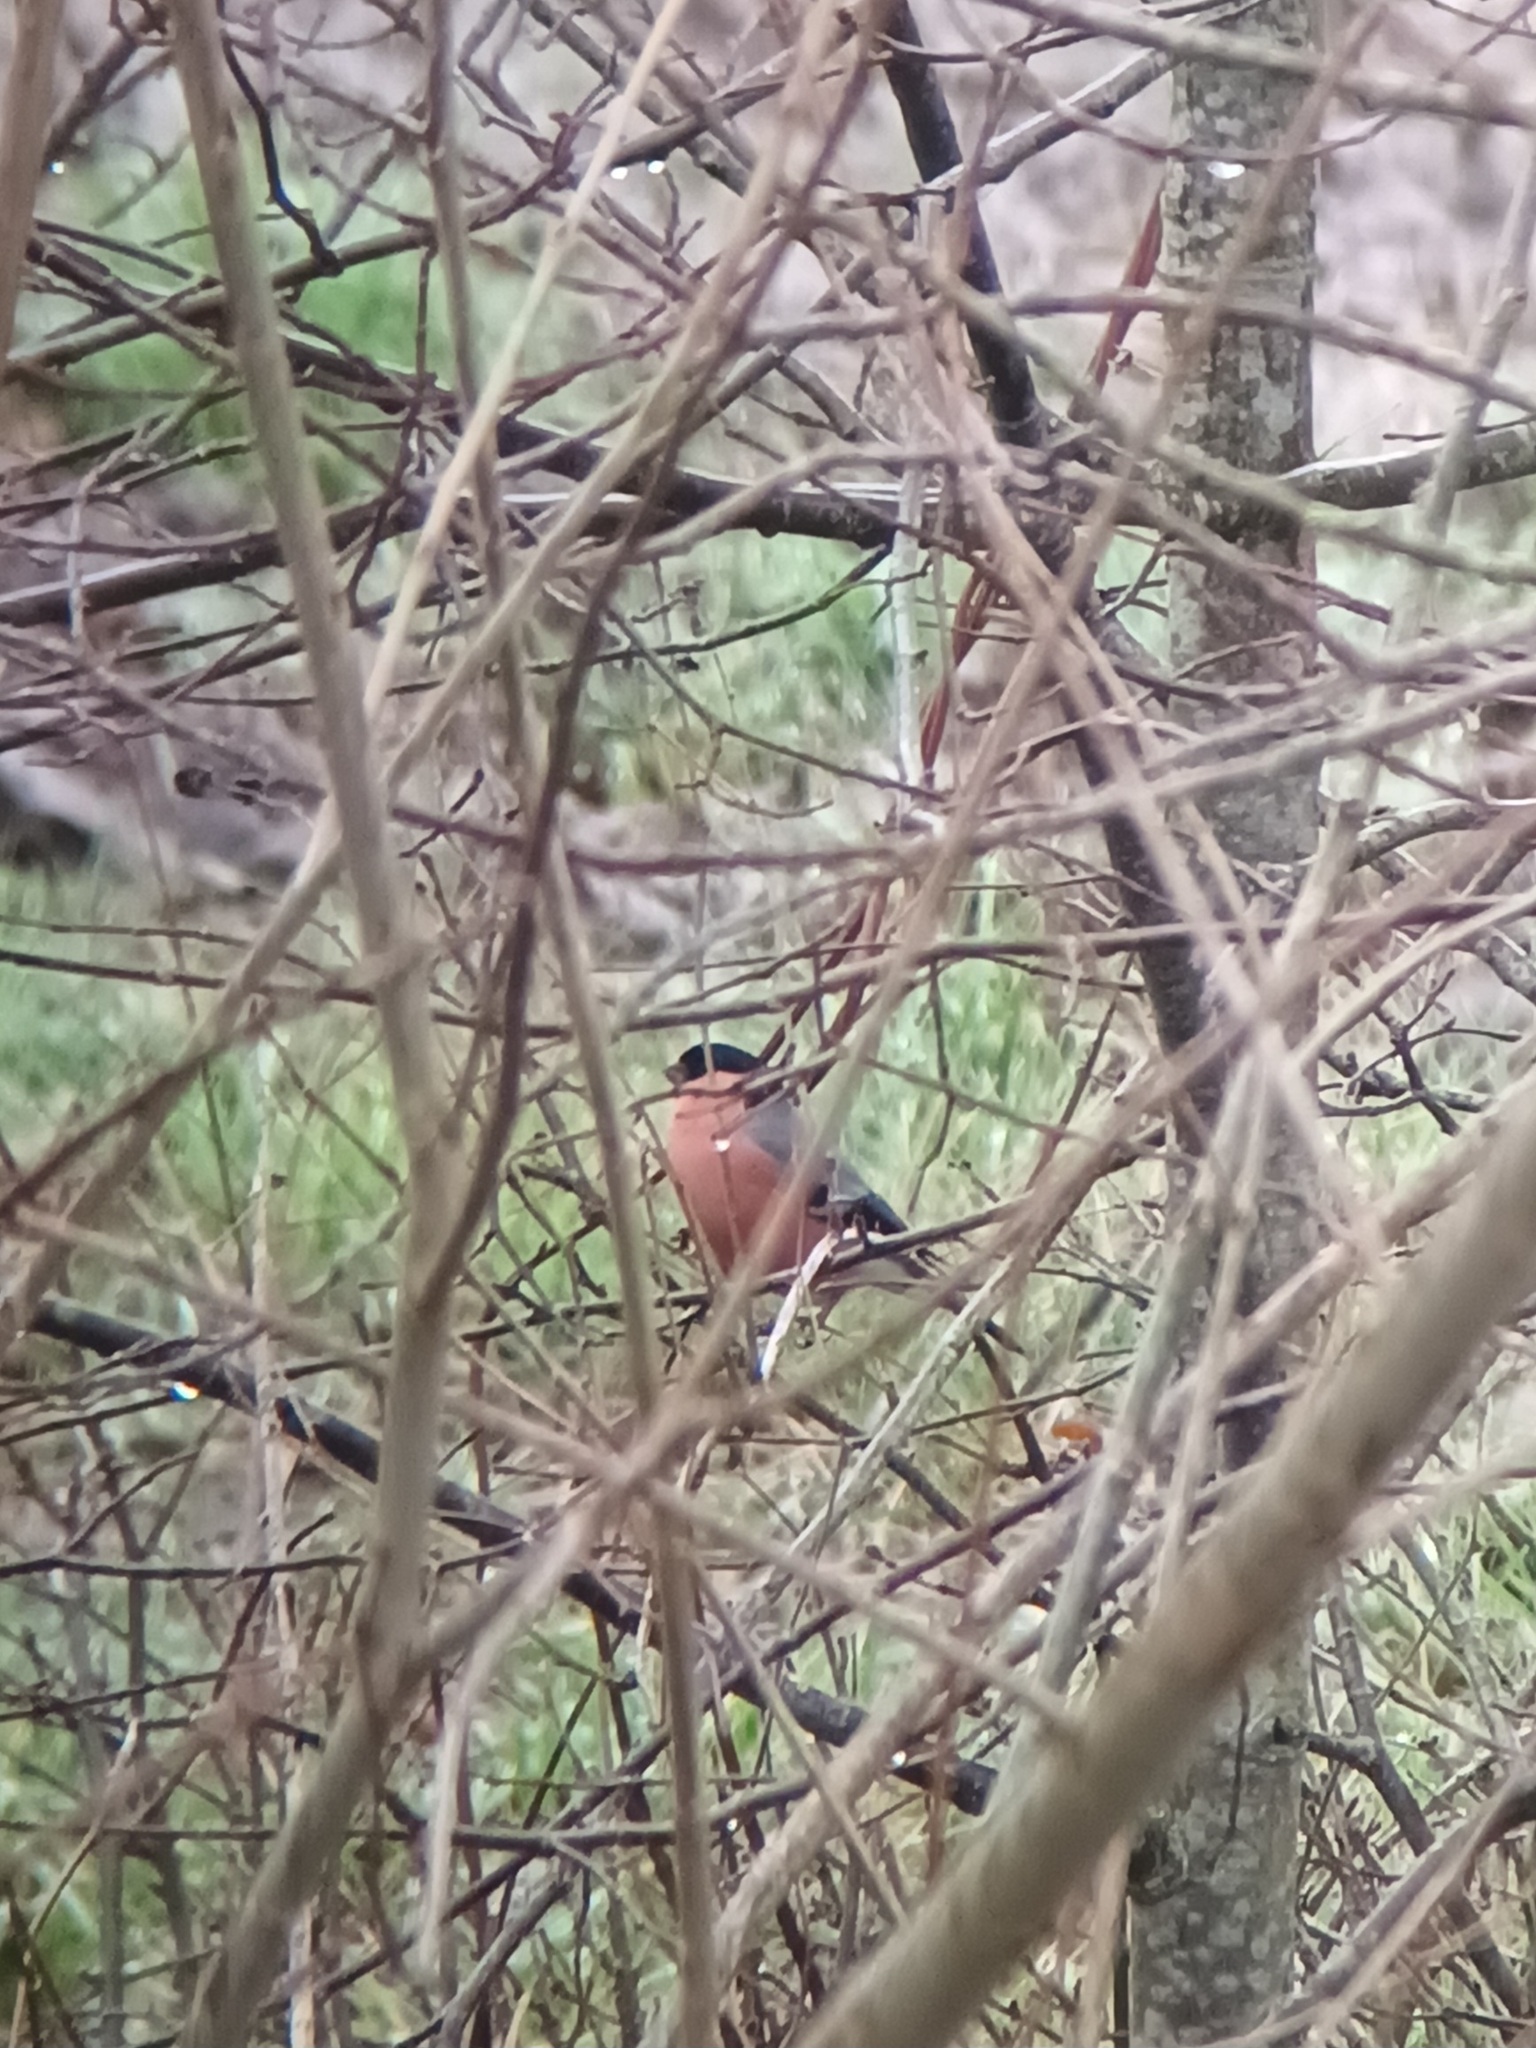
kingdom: Animalia
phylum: Chordata
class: Aves
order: Passeriformes
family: Fringillidae
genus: Pyrrhula
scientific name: Pyrrhula pyrrhula
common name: Eurasian bullfinch
